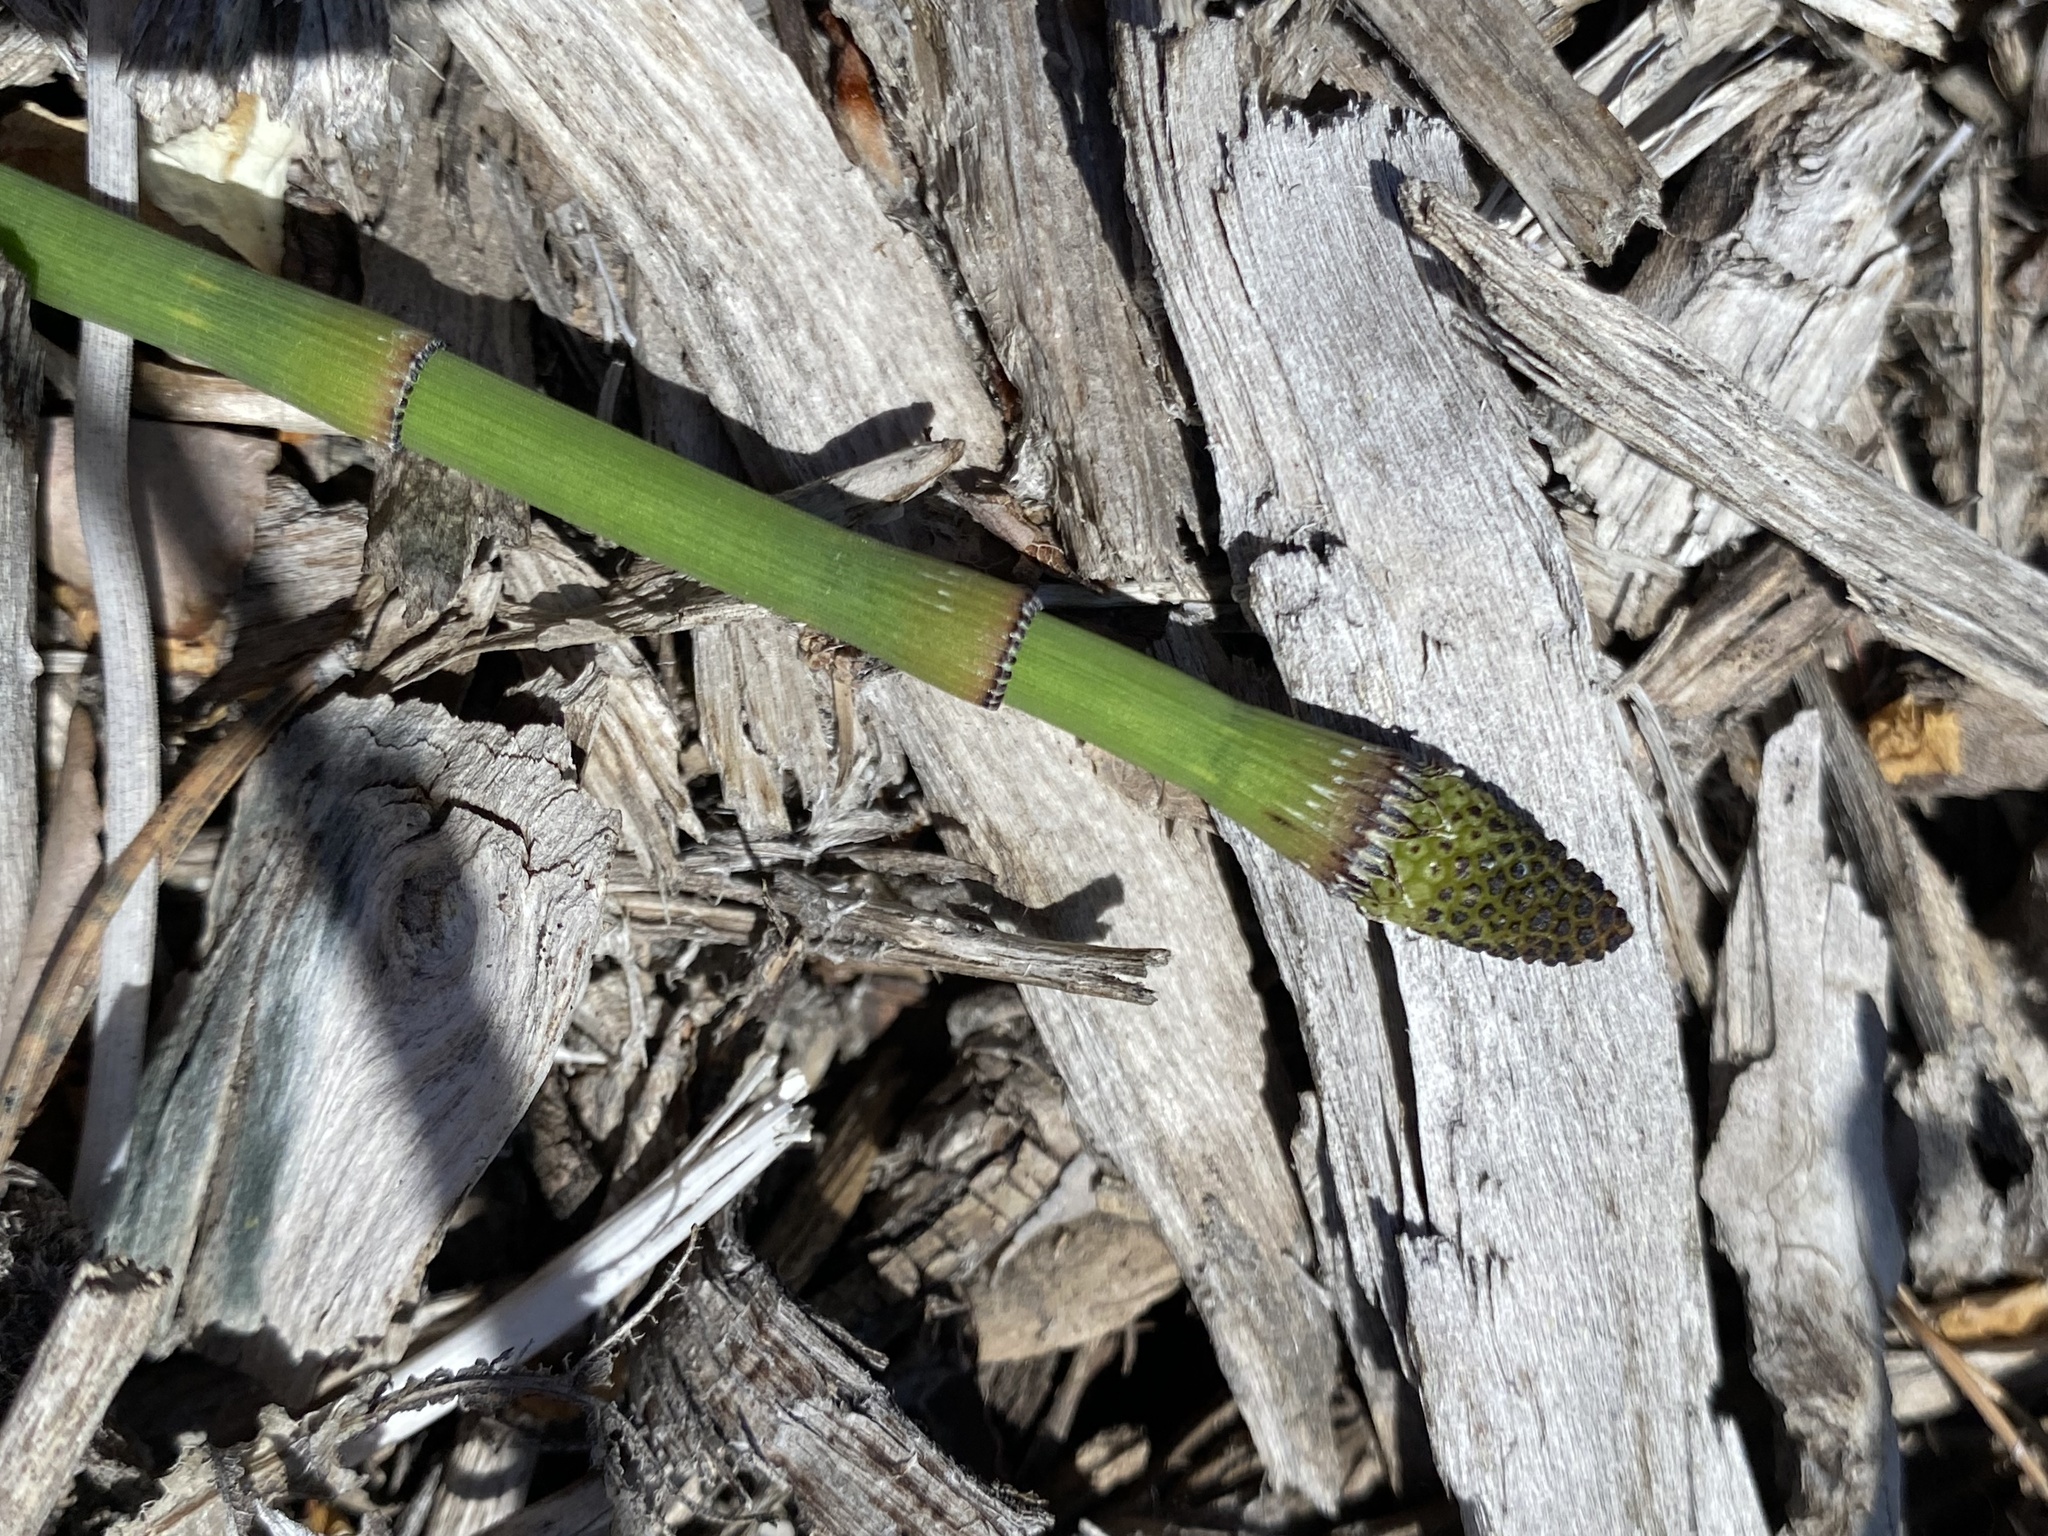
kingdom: Plantae
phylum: Tracheophyta
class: Polypodiopsida
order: Equisetales
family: Equisetaceae
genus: Equisetum
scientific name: Equisetum laevigatum
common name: Smooth scouring-rush
